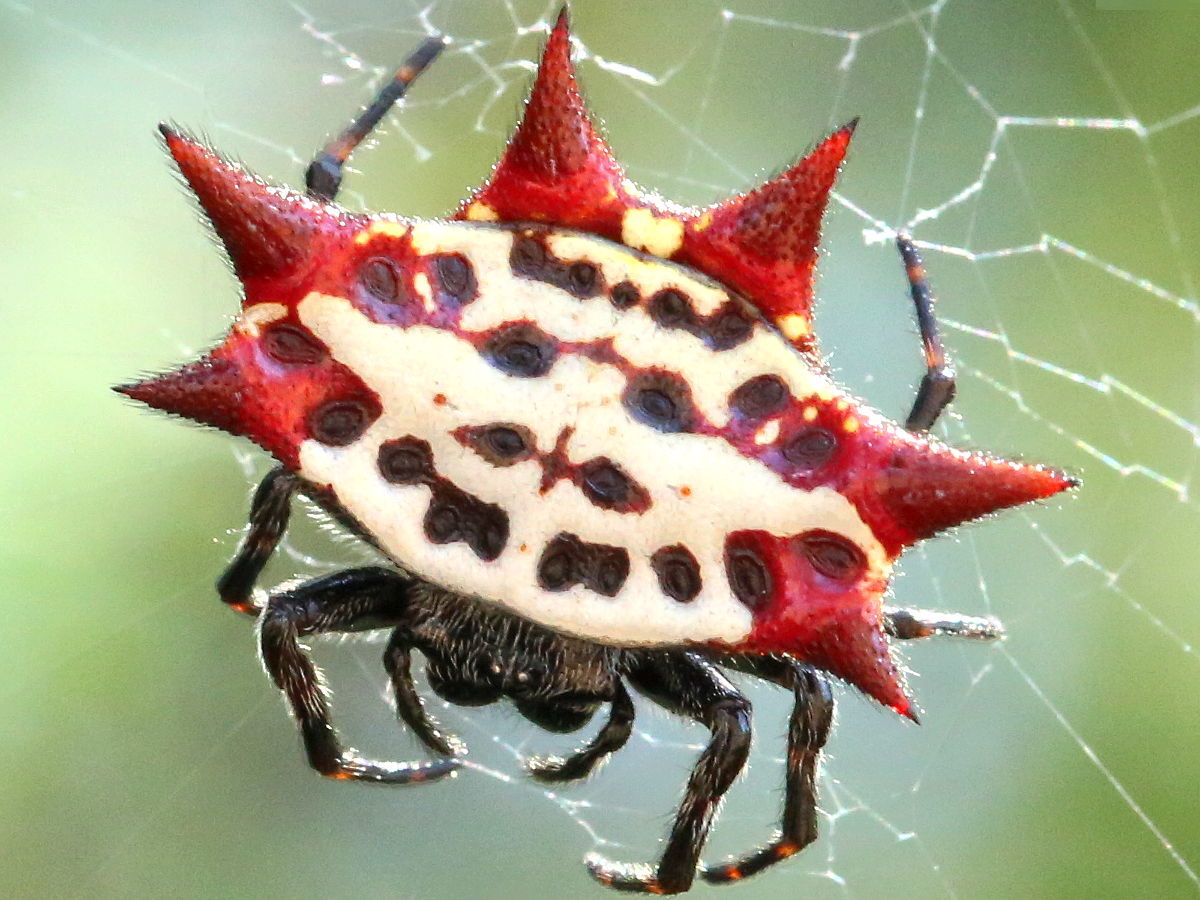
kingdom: Animalia
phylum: Arthropoda
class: Arachnida
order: Araneae
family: Araneidae
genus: Gasteracantha
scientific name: Gasteracantha cancriformis
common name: Orb weavers
